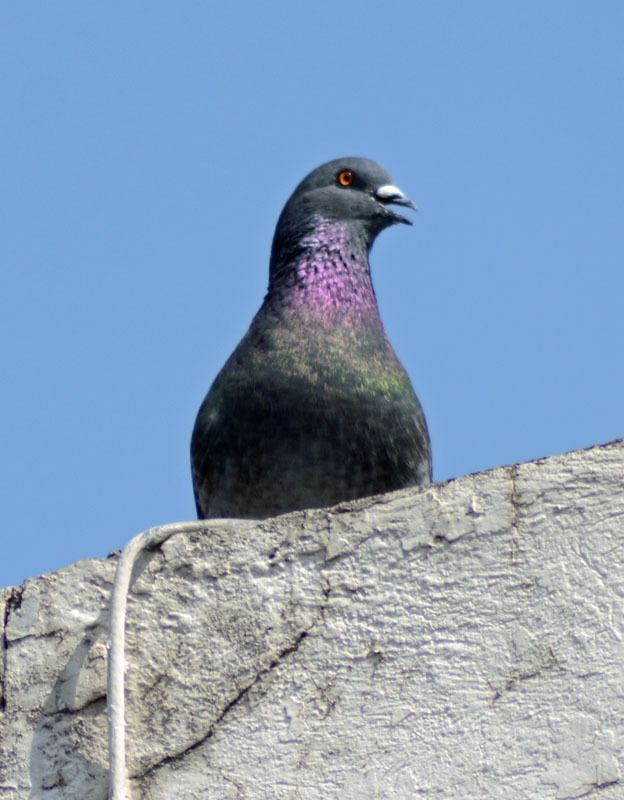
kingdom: Animalia
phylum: Chordata
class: Aves
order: Columbiformes
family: Columbidae
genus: Columba
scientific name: Columba livia
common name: Rock pigeon
